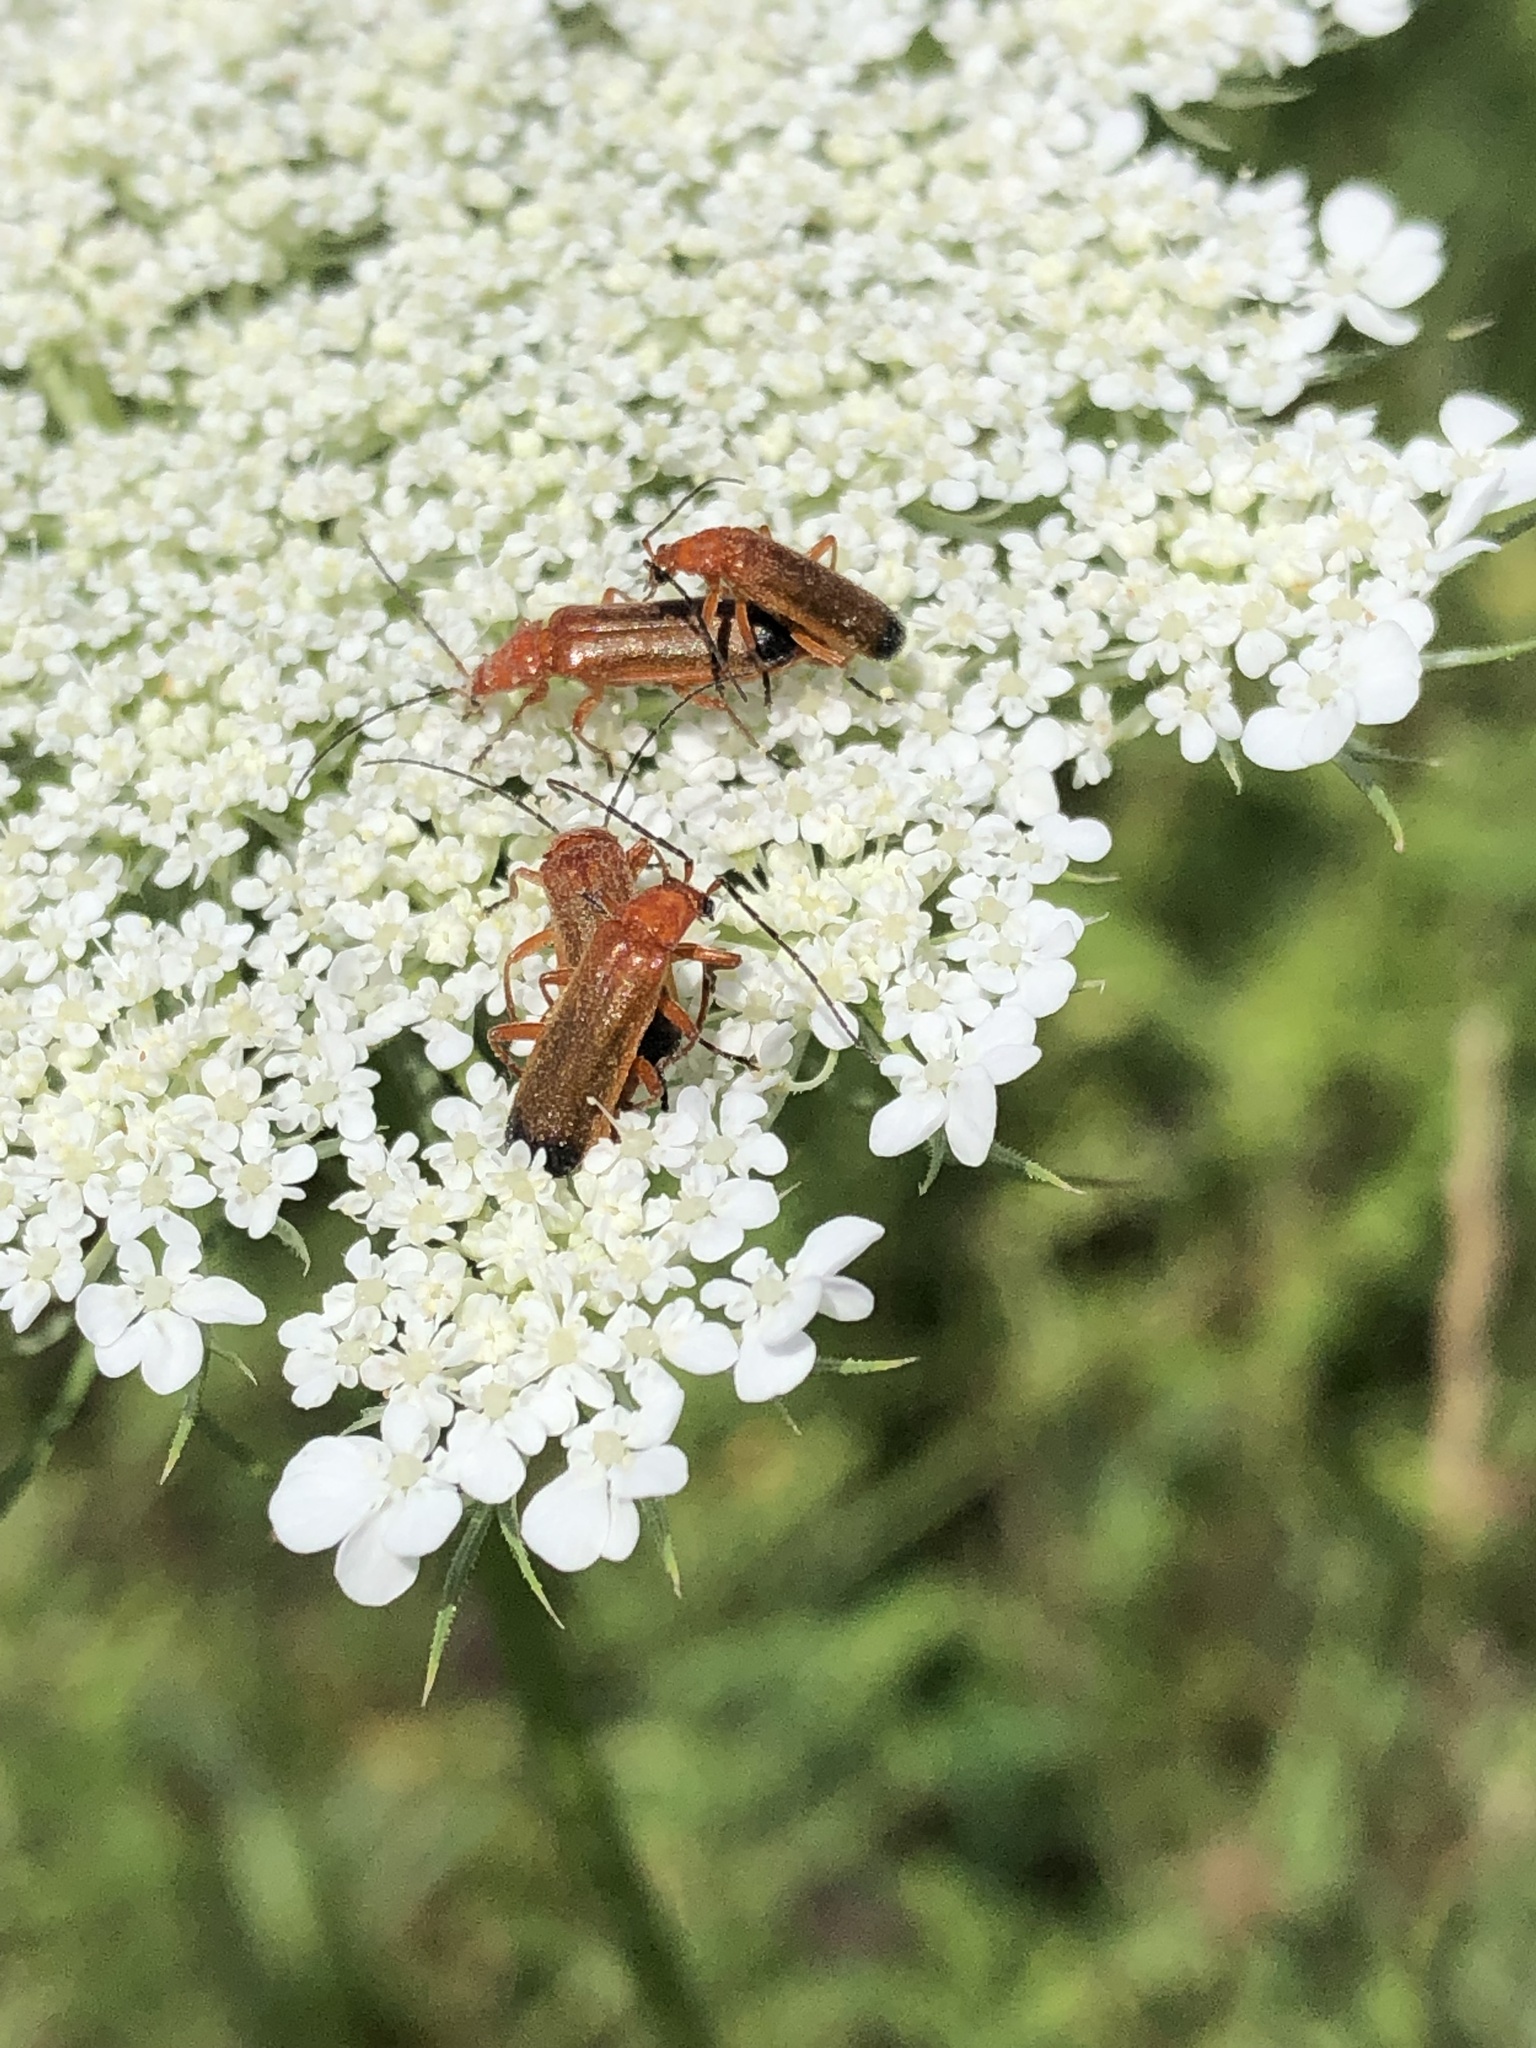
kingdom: Animalia
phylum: Arthropoda
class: Insecta
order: Coleoptera
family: Cantharidae
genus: Rhagonycha
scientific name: Rhagonycha fulva
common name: Common red soldier beetle
